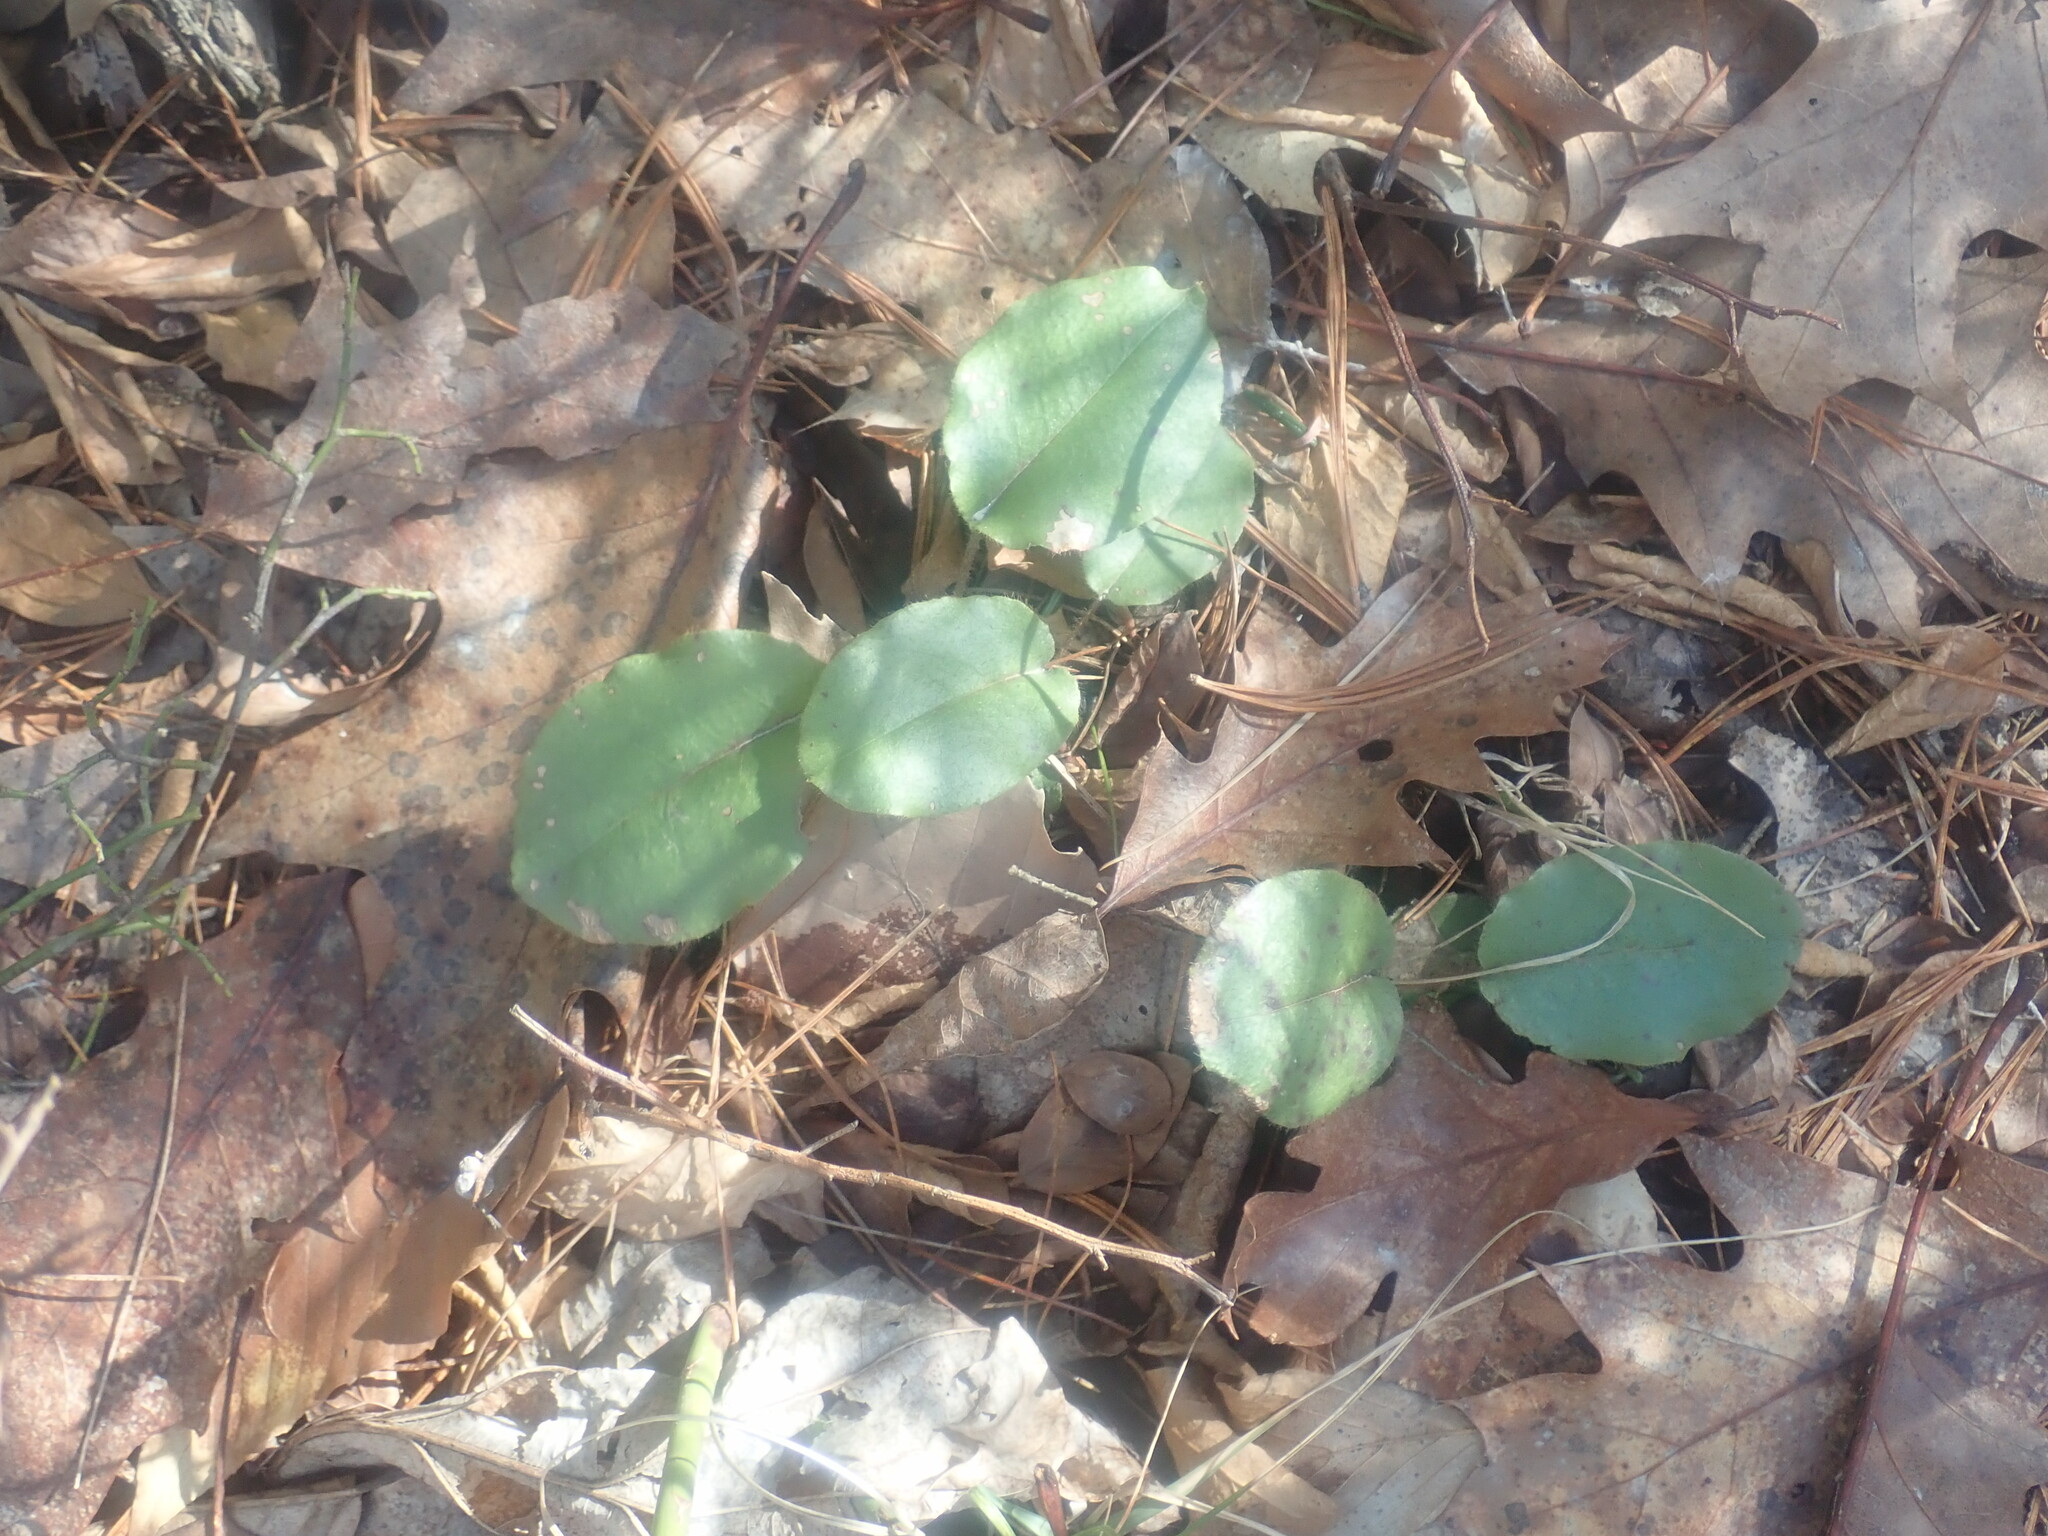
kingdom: Plantae
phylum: Tracheophyta
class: Magnoliopsida
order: Ericales
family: Ericaceae
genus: Epigaea
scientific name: Epigaea repens
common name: Gravelroot
